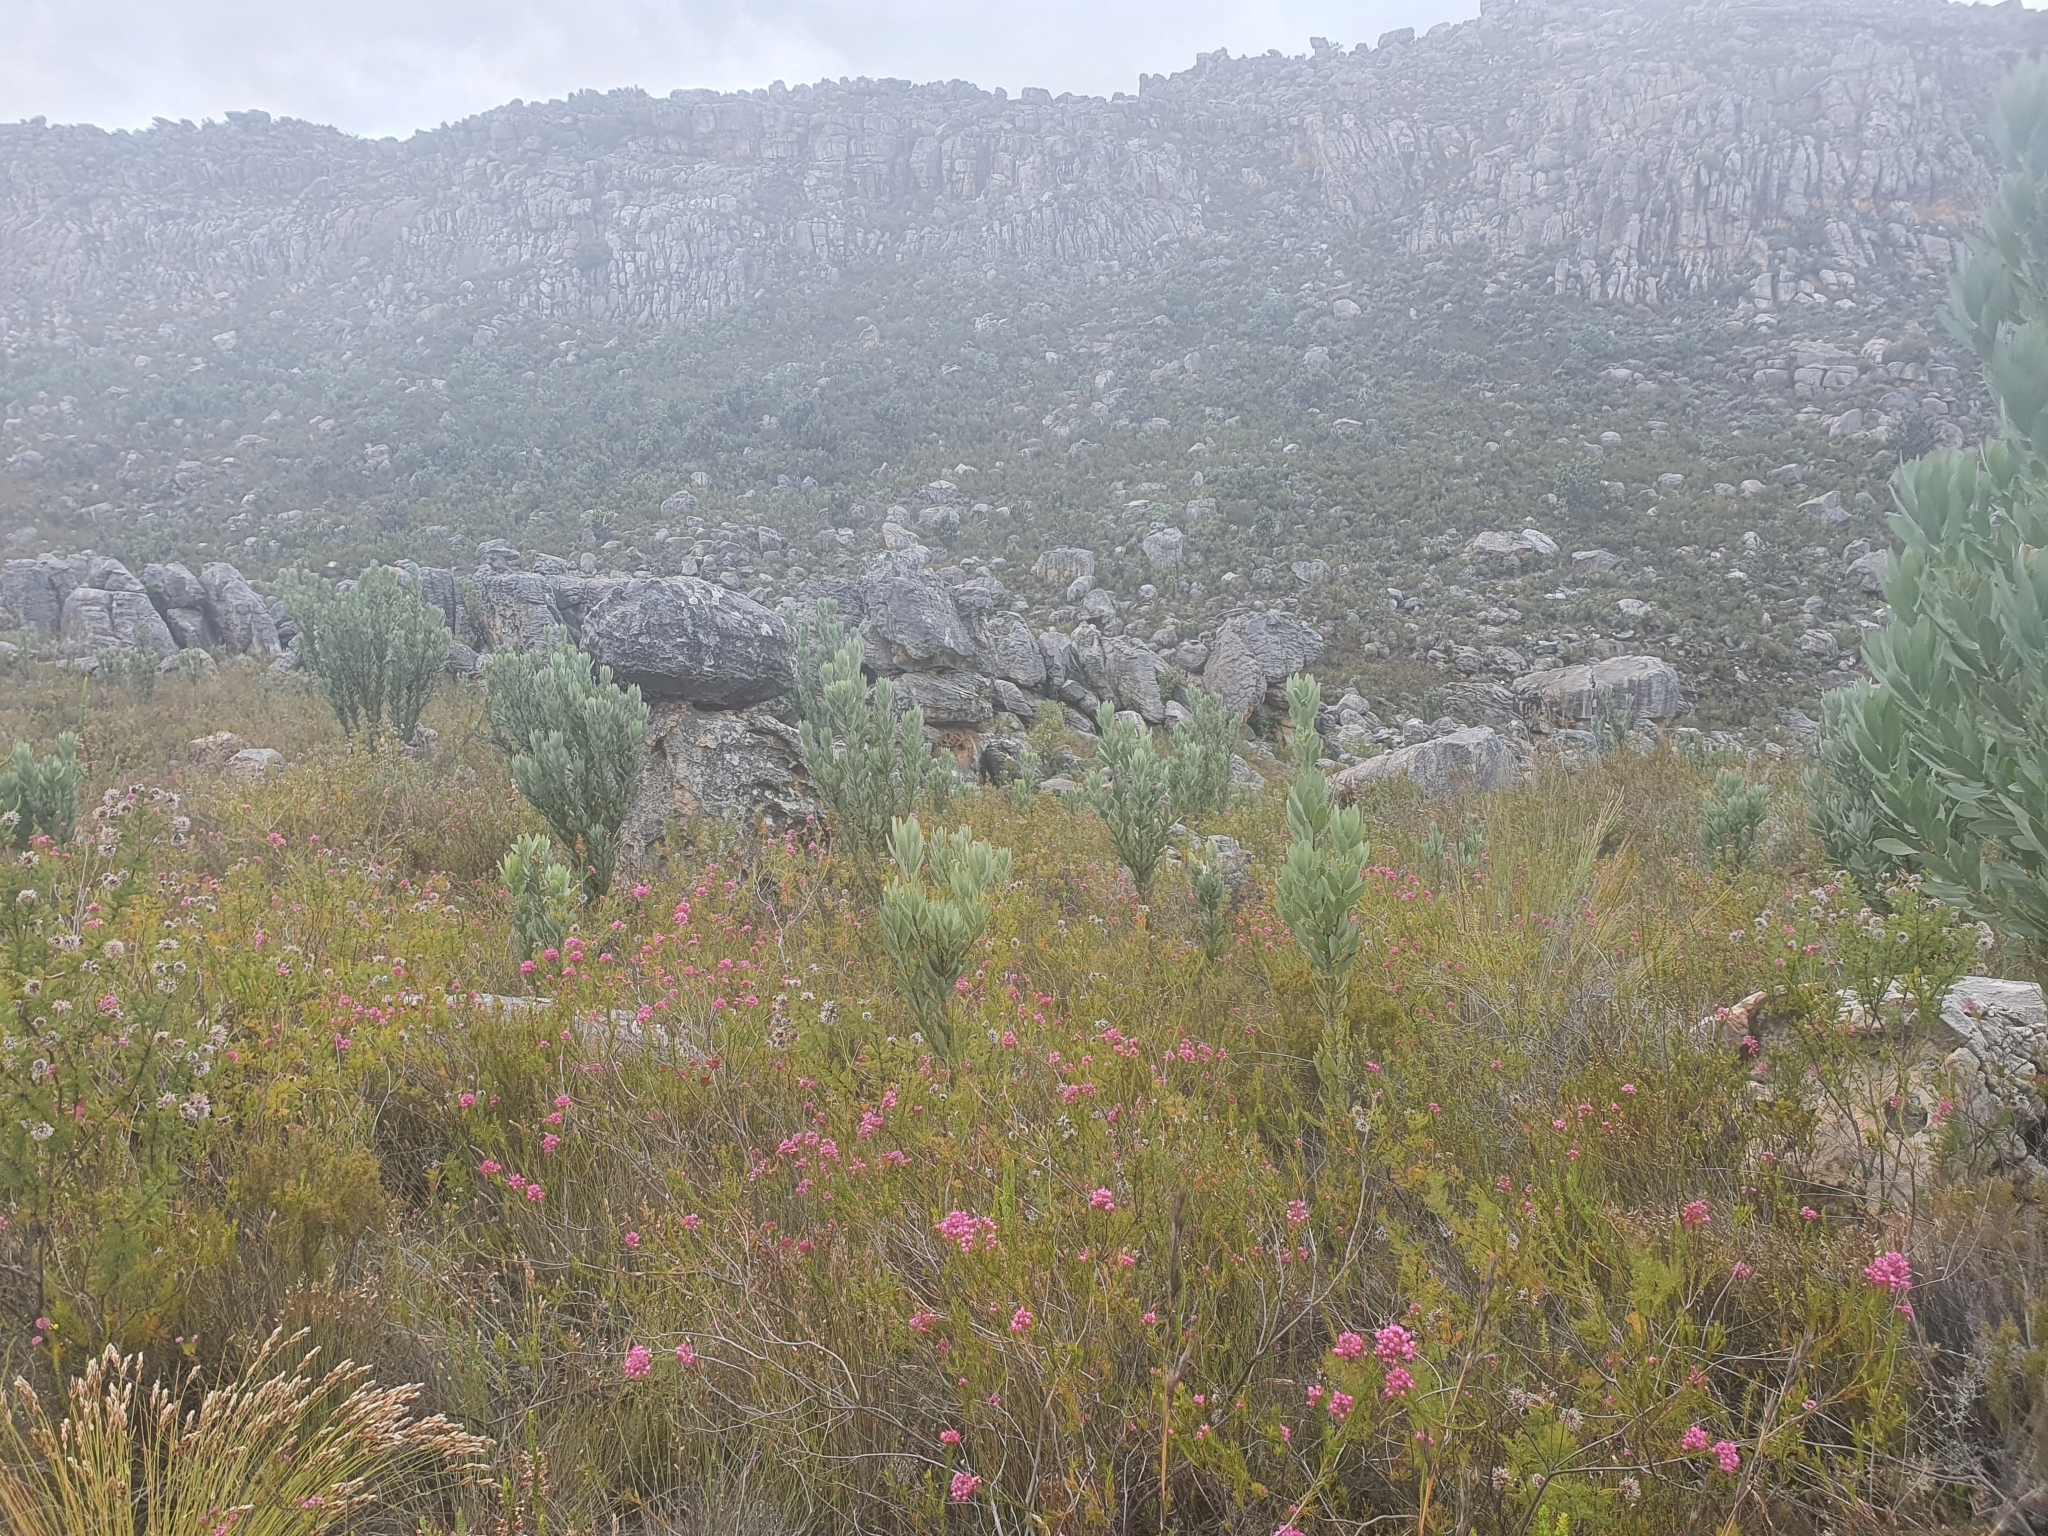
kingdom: Plantae
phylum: Tracheophyta
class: Magnoliopsida
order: Proteales
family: Proteaceae
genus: Protea
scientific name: Protea laurifolia
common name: Grey-leaf sugarbsh
